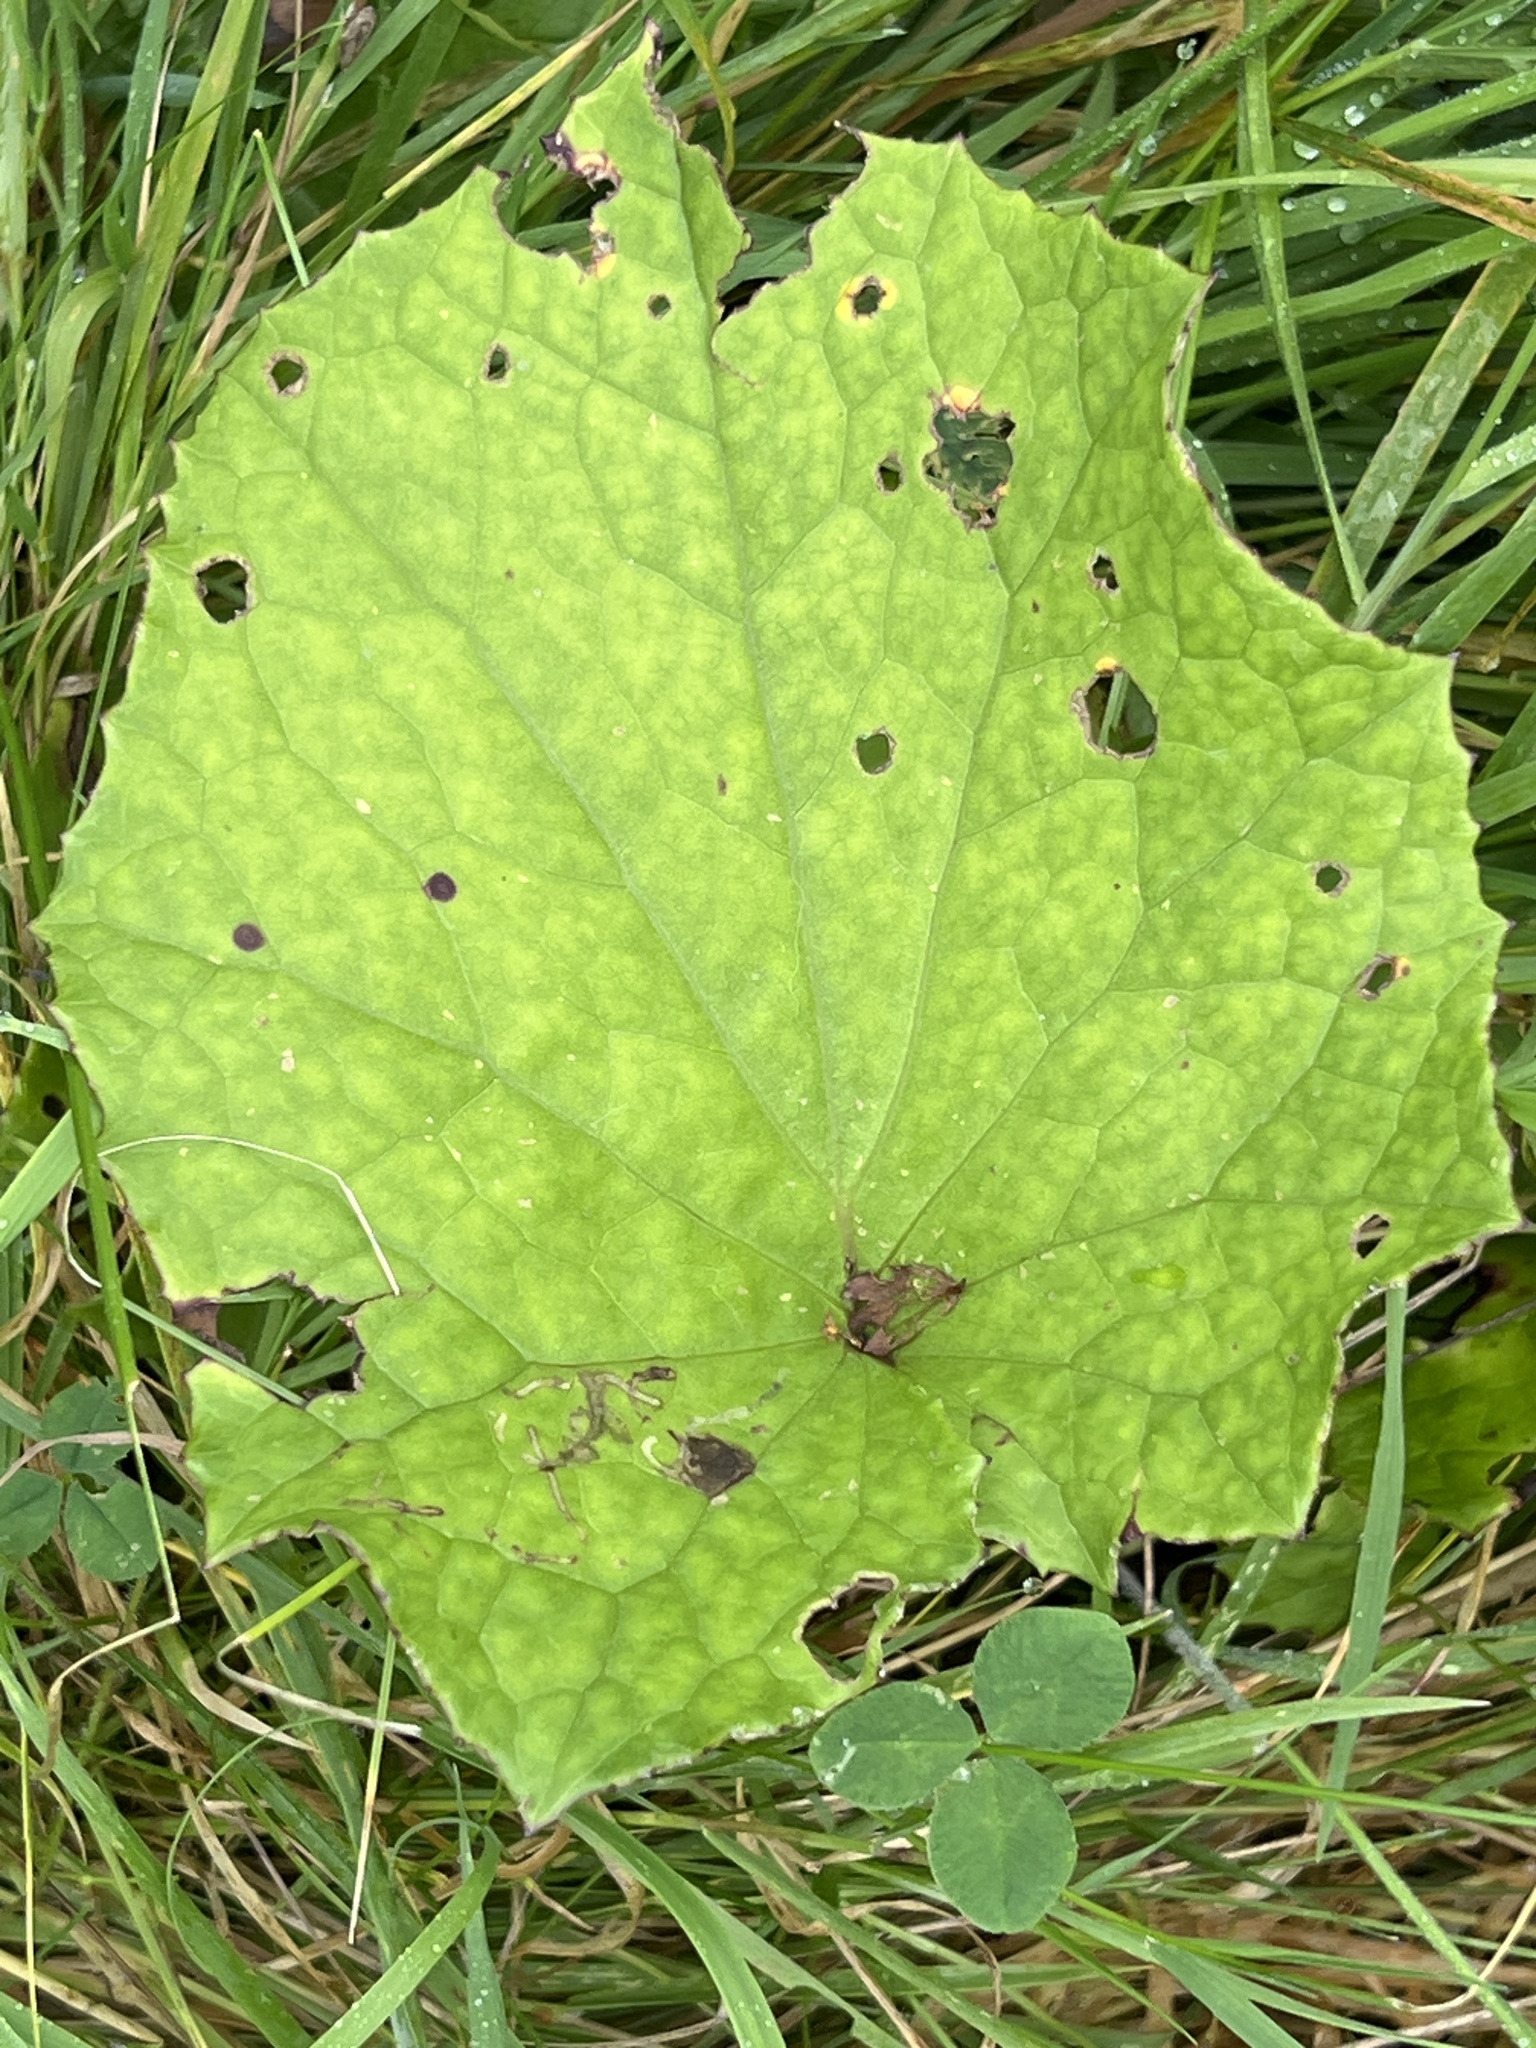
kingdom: Plantae
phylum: Tracheophyta
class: Magnoliopsida
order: Asterales
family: Asteraceae
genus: Tussilago
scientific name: Tussilago farfara
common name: Coltsfoot
